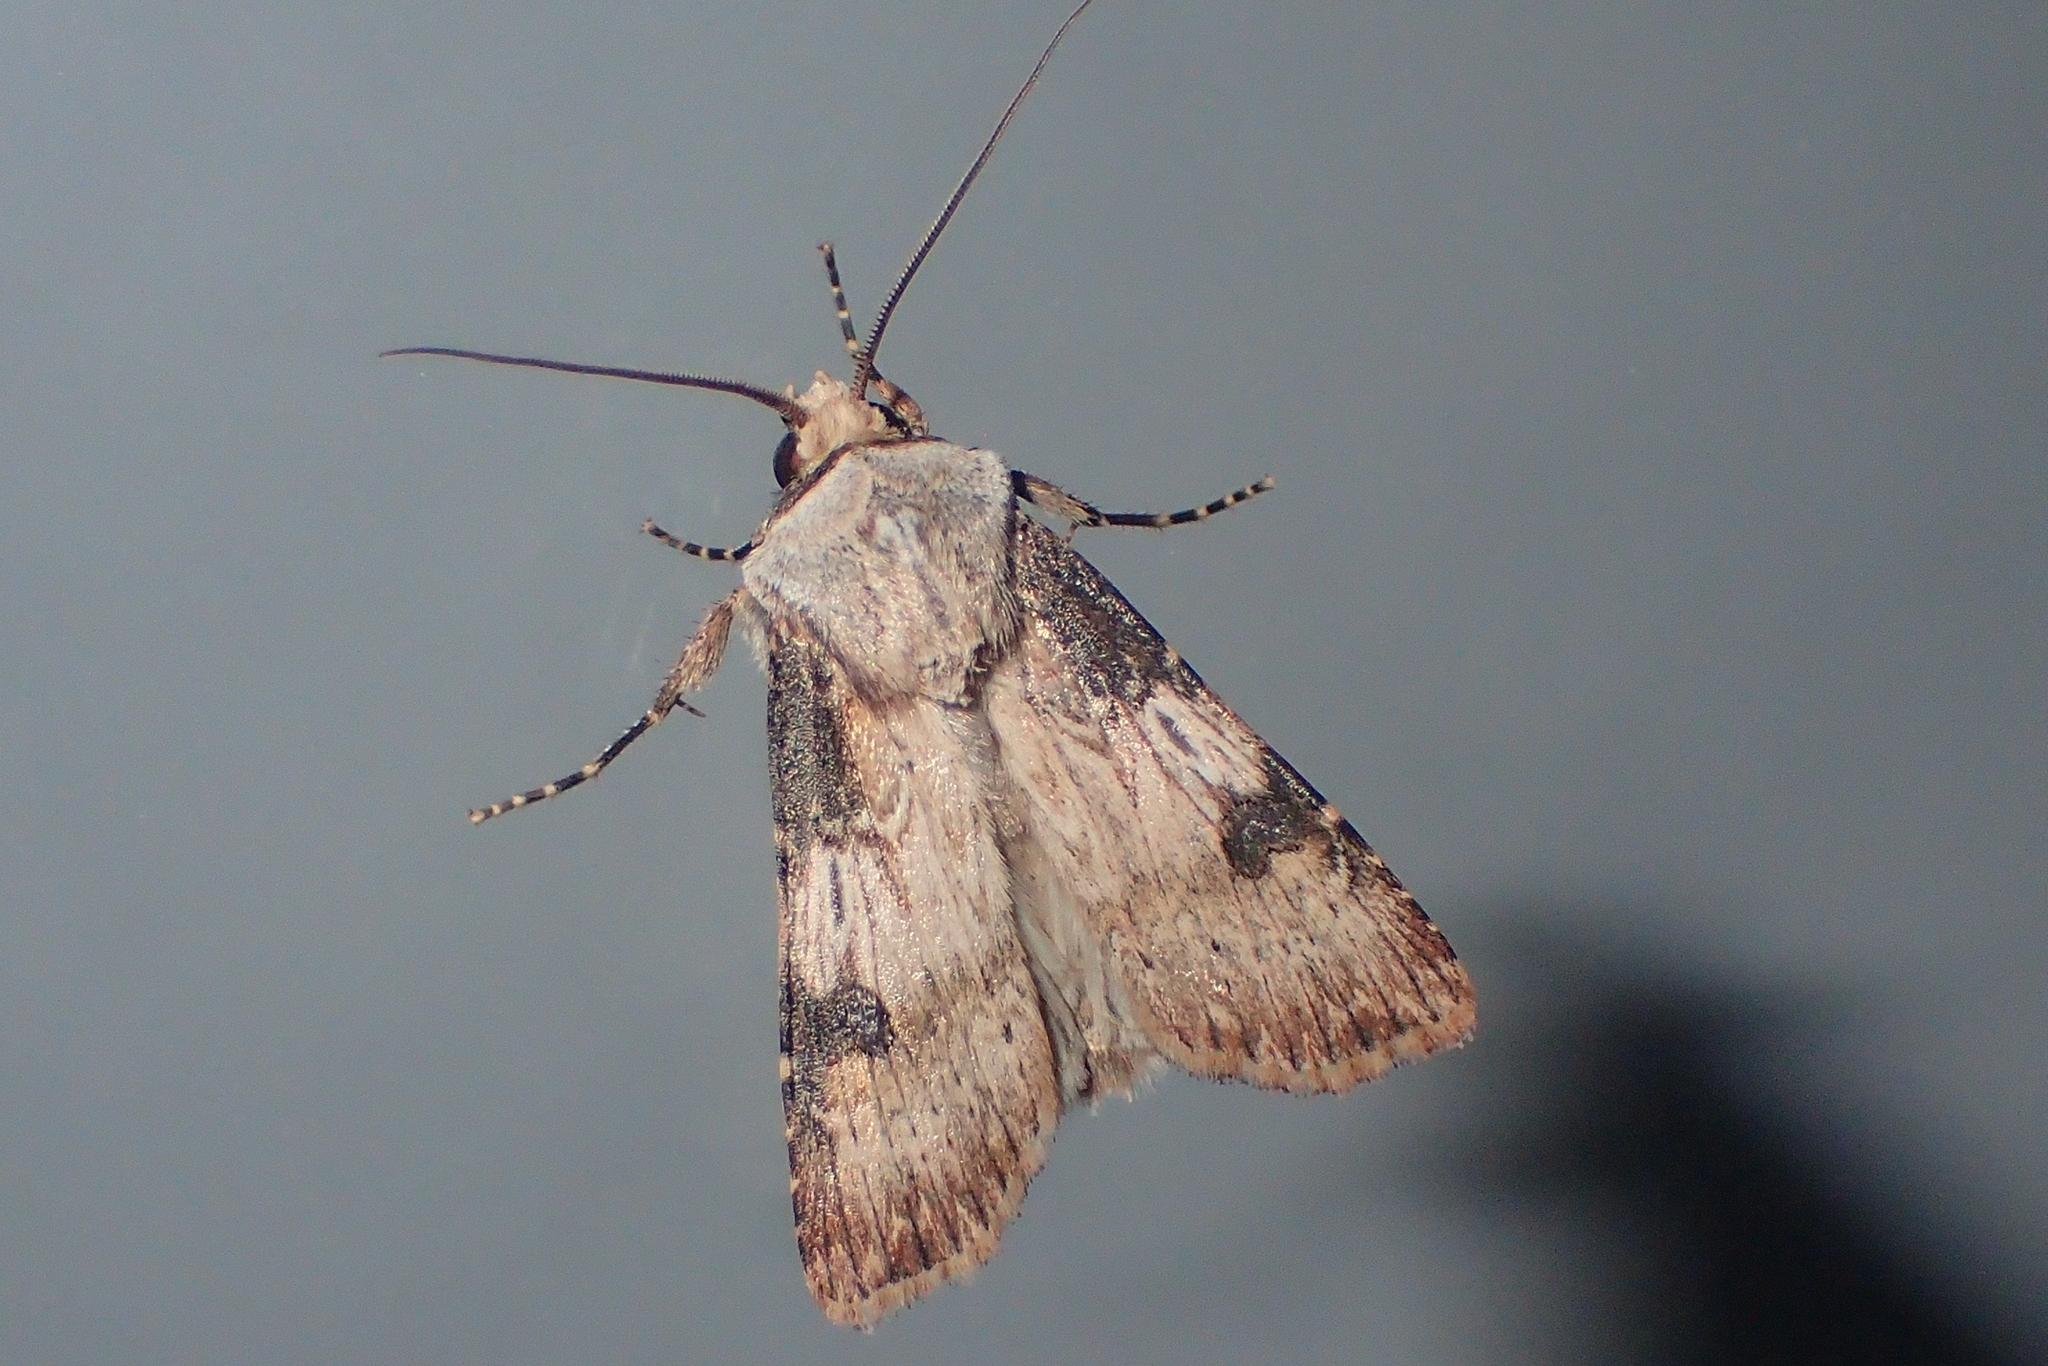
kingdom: Animalia
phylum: Arthropoda
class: Insecta
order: Lepidoptera
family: Noctuidae
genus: Agrotis
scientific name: Agrotis puta
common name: Shuttle-shaped dart
